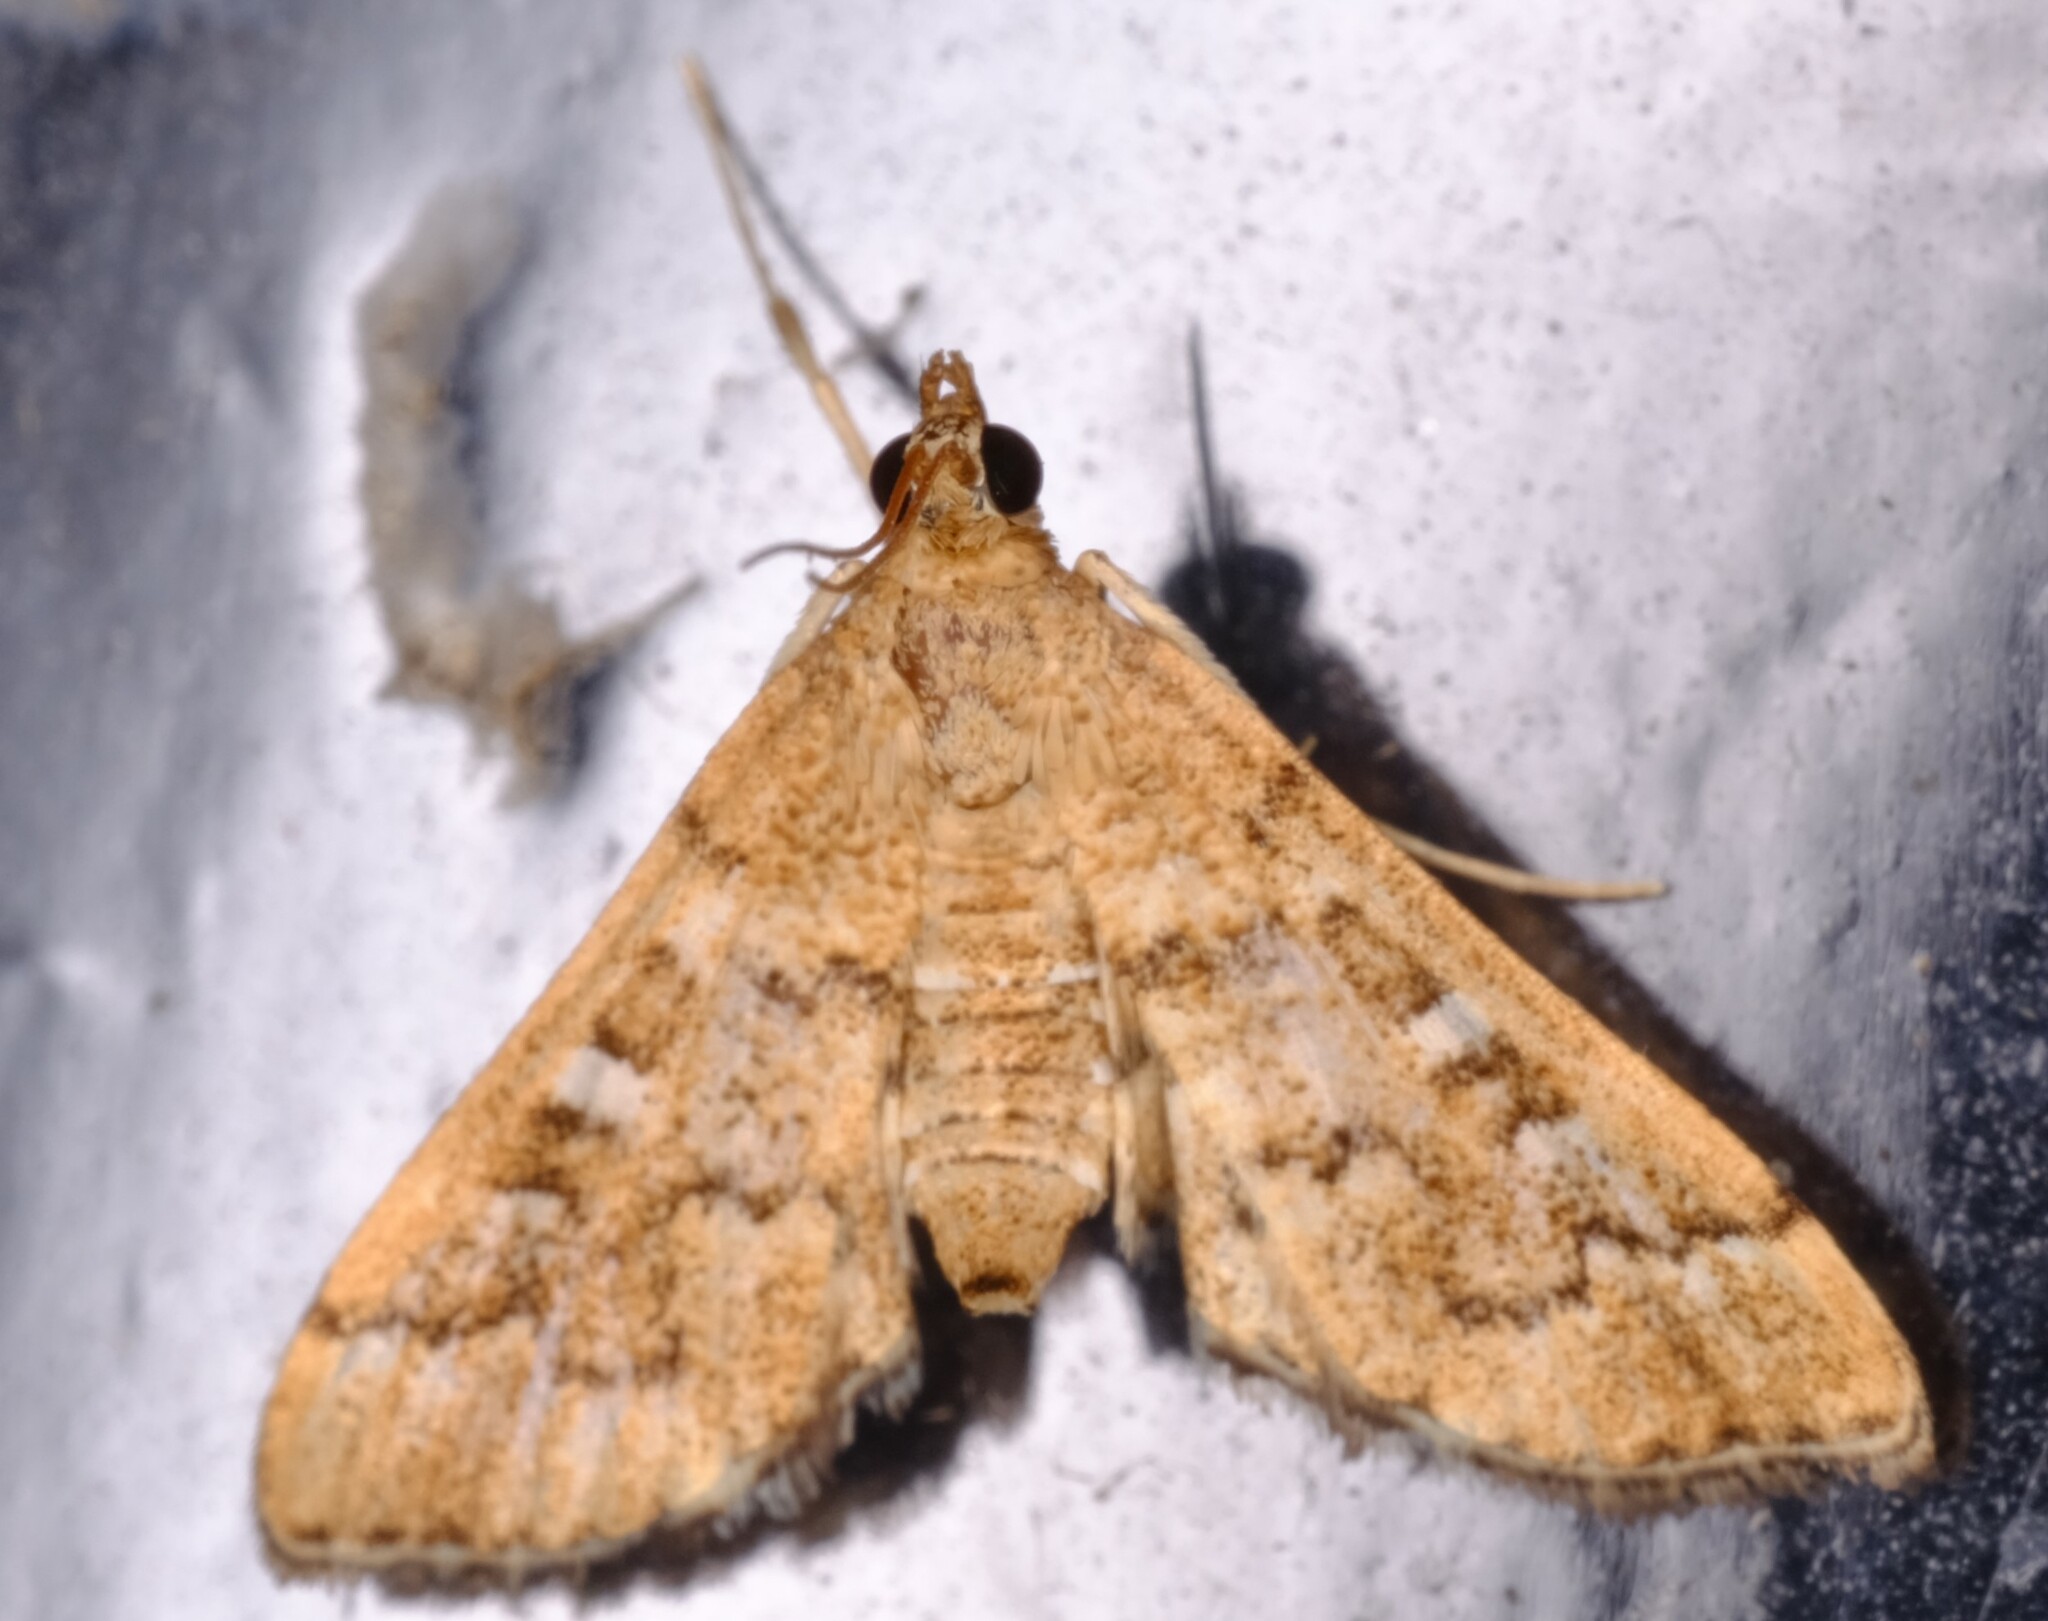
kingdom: Animalia
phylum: Arthropoda
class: Insecta
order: Lepidoptera
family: Crambidae
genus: Nacoleia
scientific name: Nacoleia rhoeoalis
